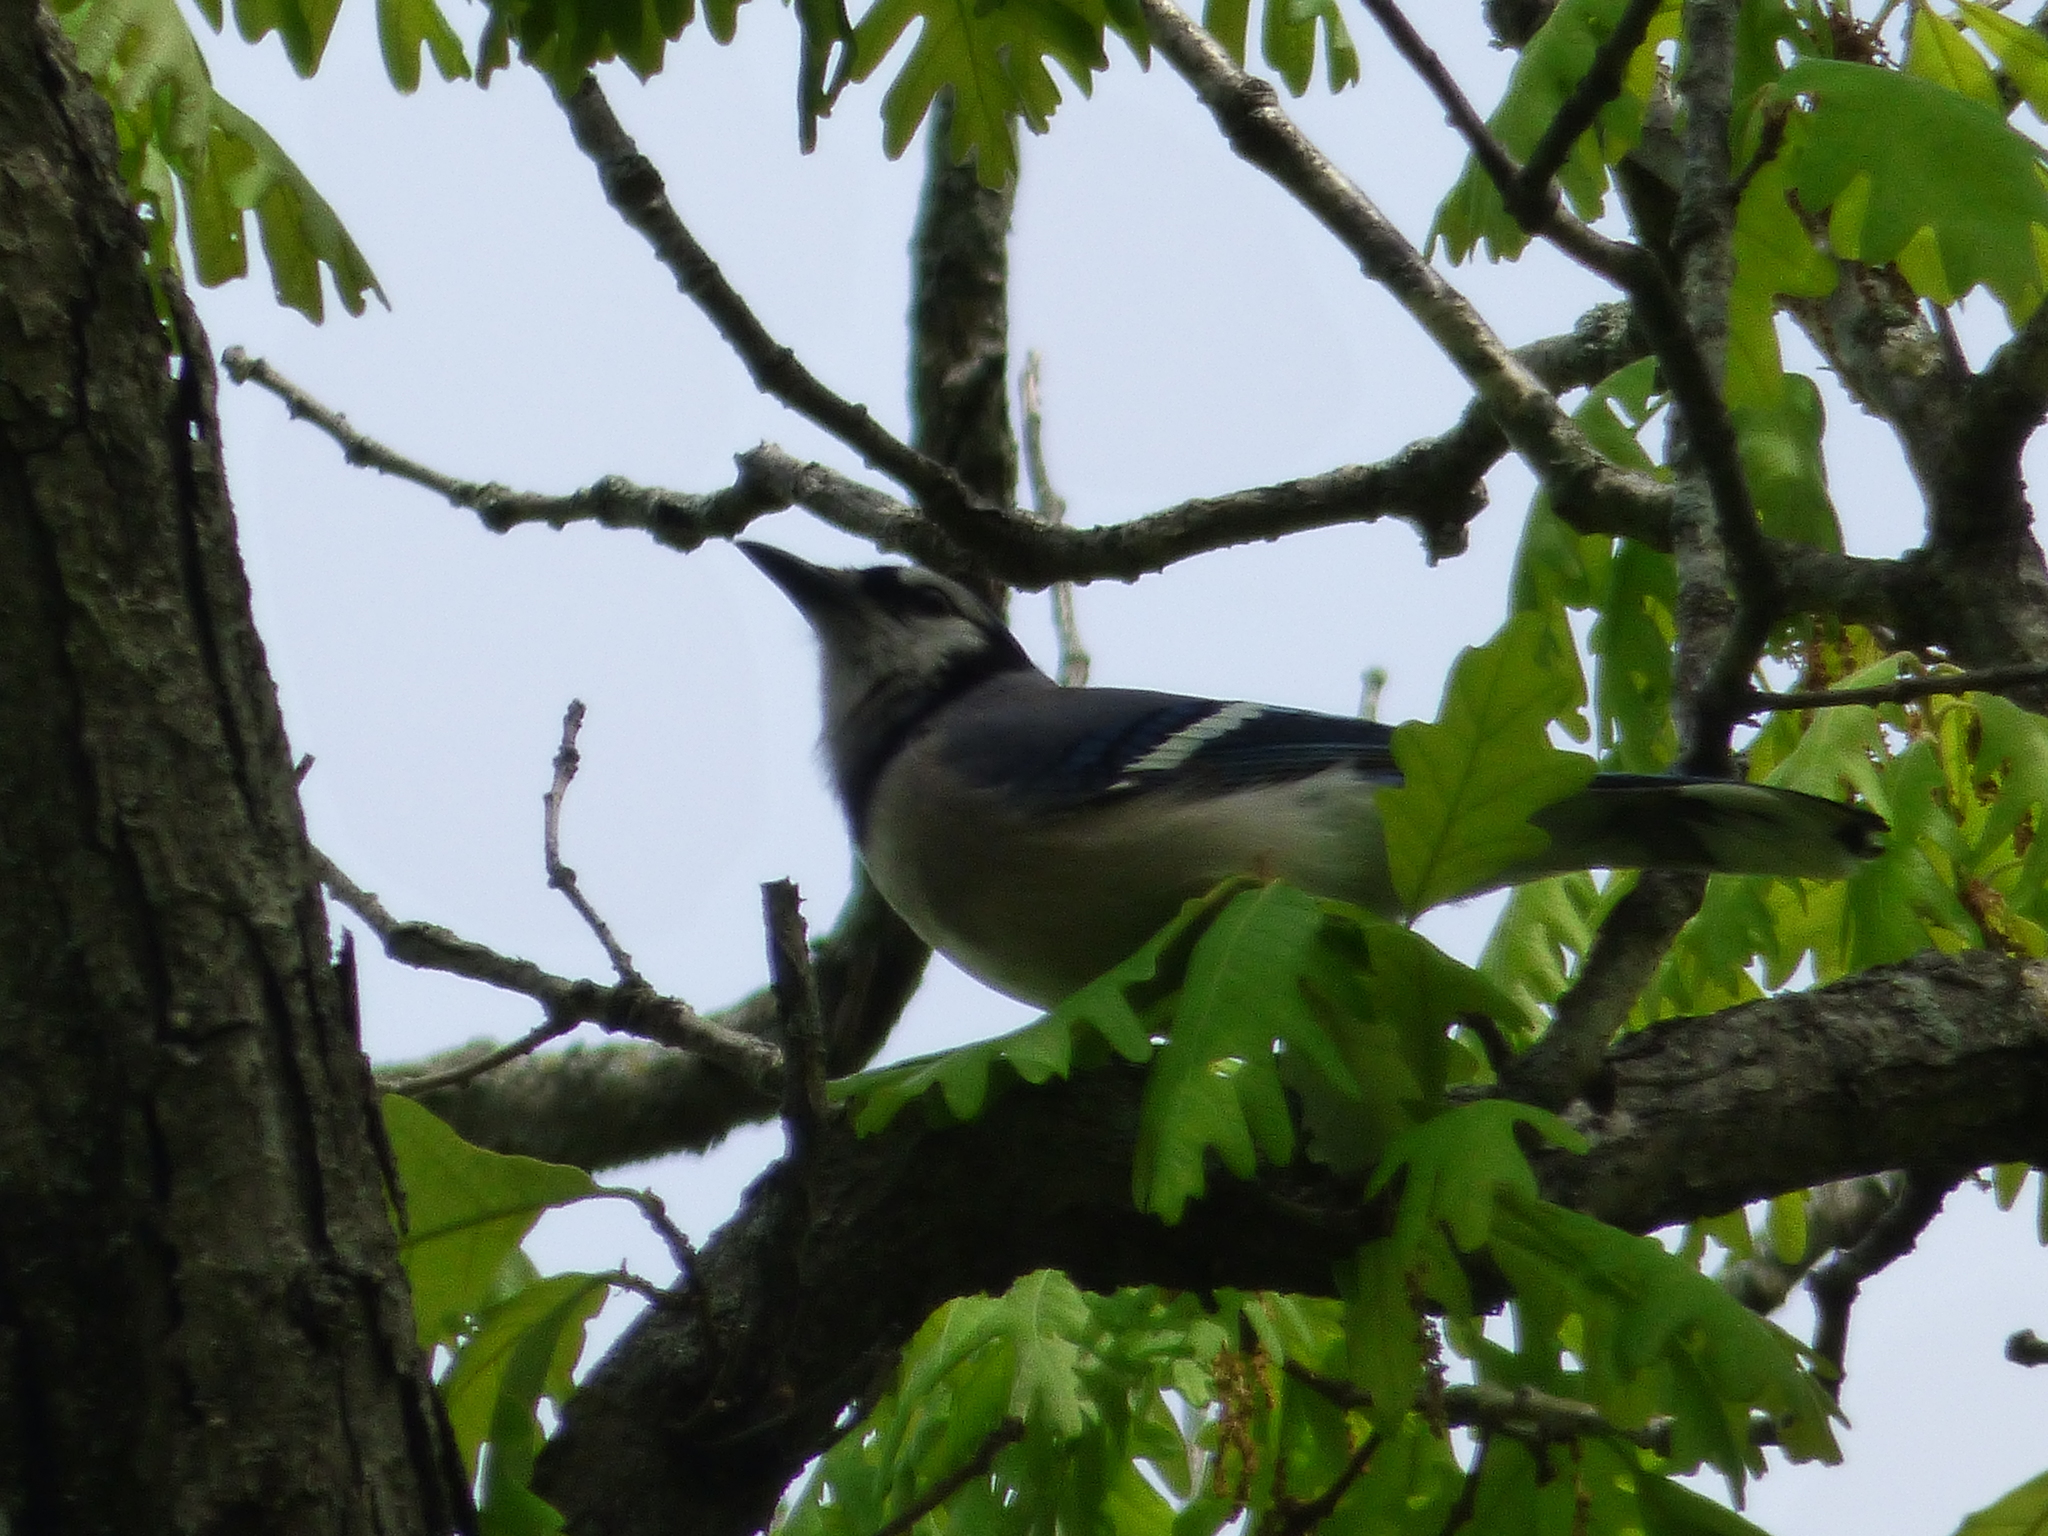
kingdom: Animalia
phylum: Chordata
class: Aves
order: Passeriformes
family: Corvidae
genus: Cyanocitta
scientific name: Cyanocitta cristata
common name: Blue jay
